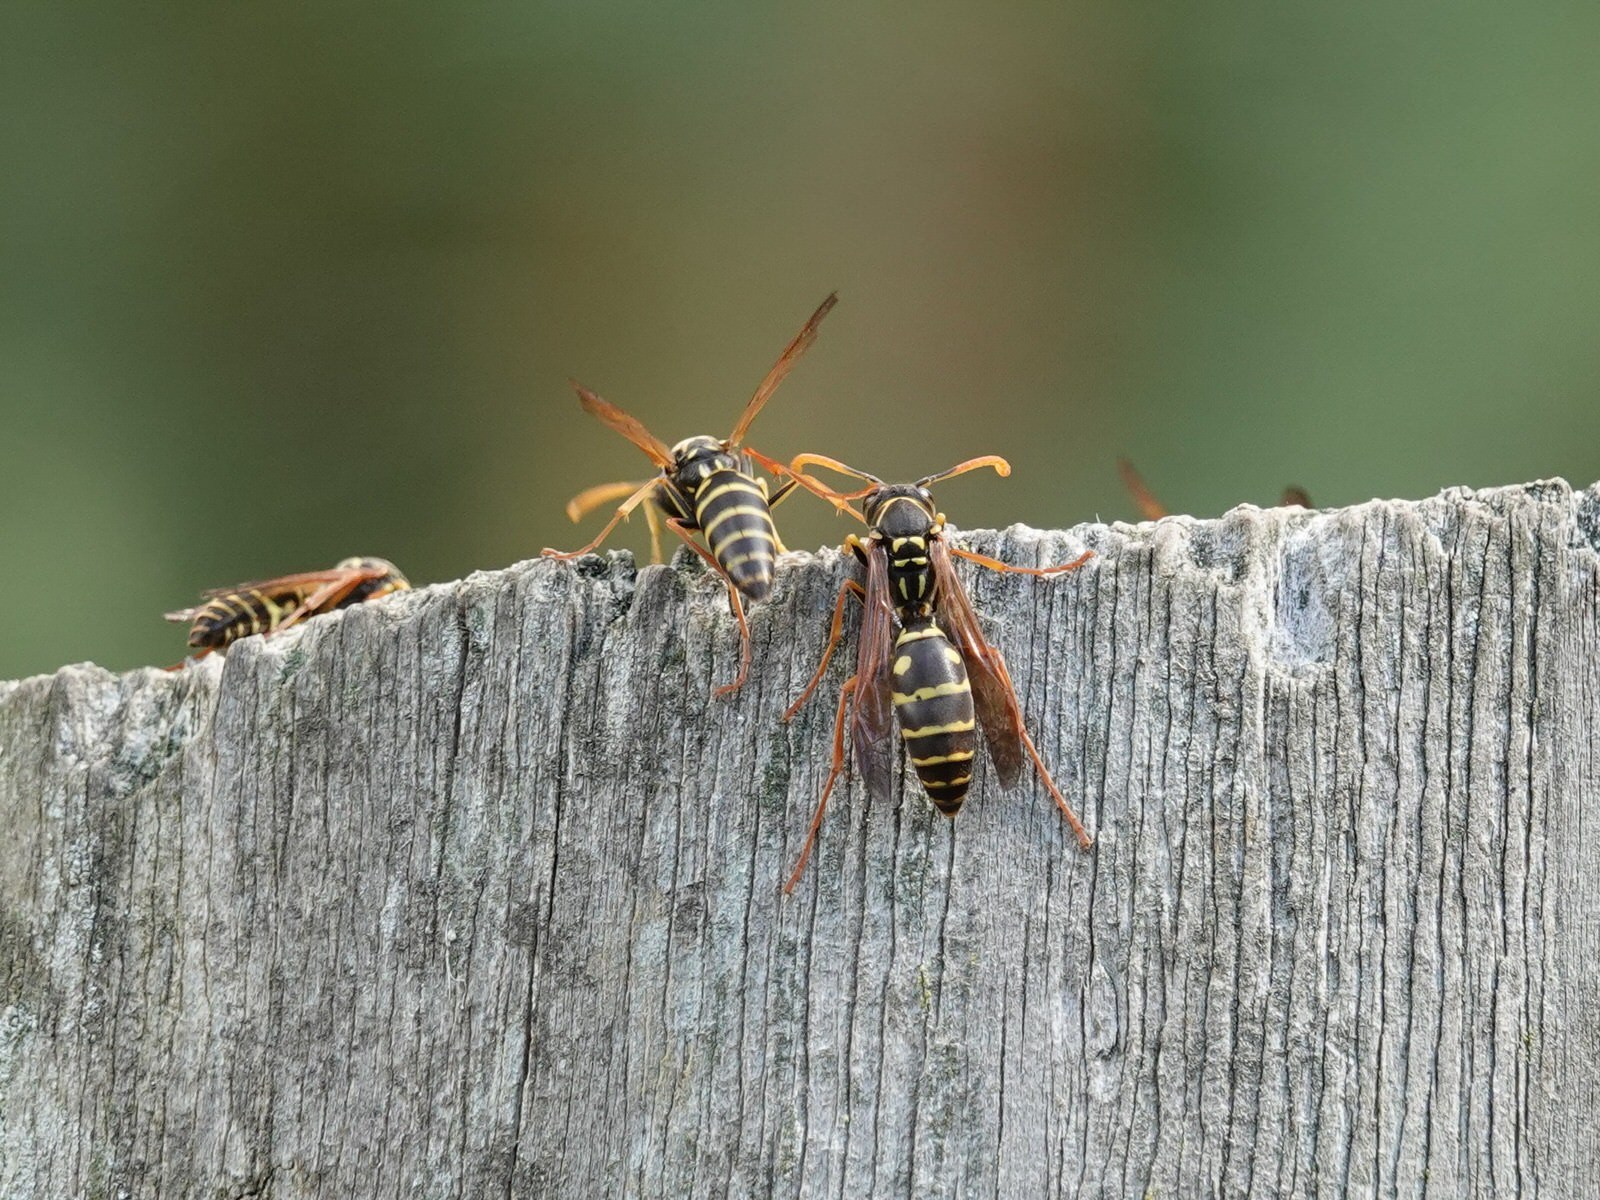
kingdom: Animalia
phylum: Arthropoda
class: Insecta
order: Hymenoptera
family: Eumenidae
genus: Polistes
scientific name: Polistes chinensis
